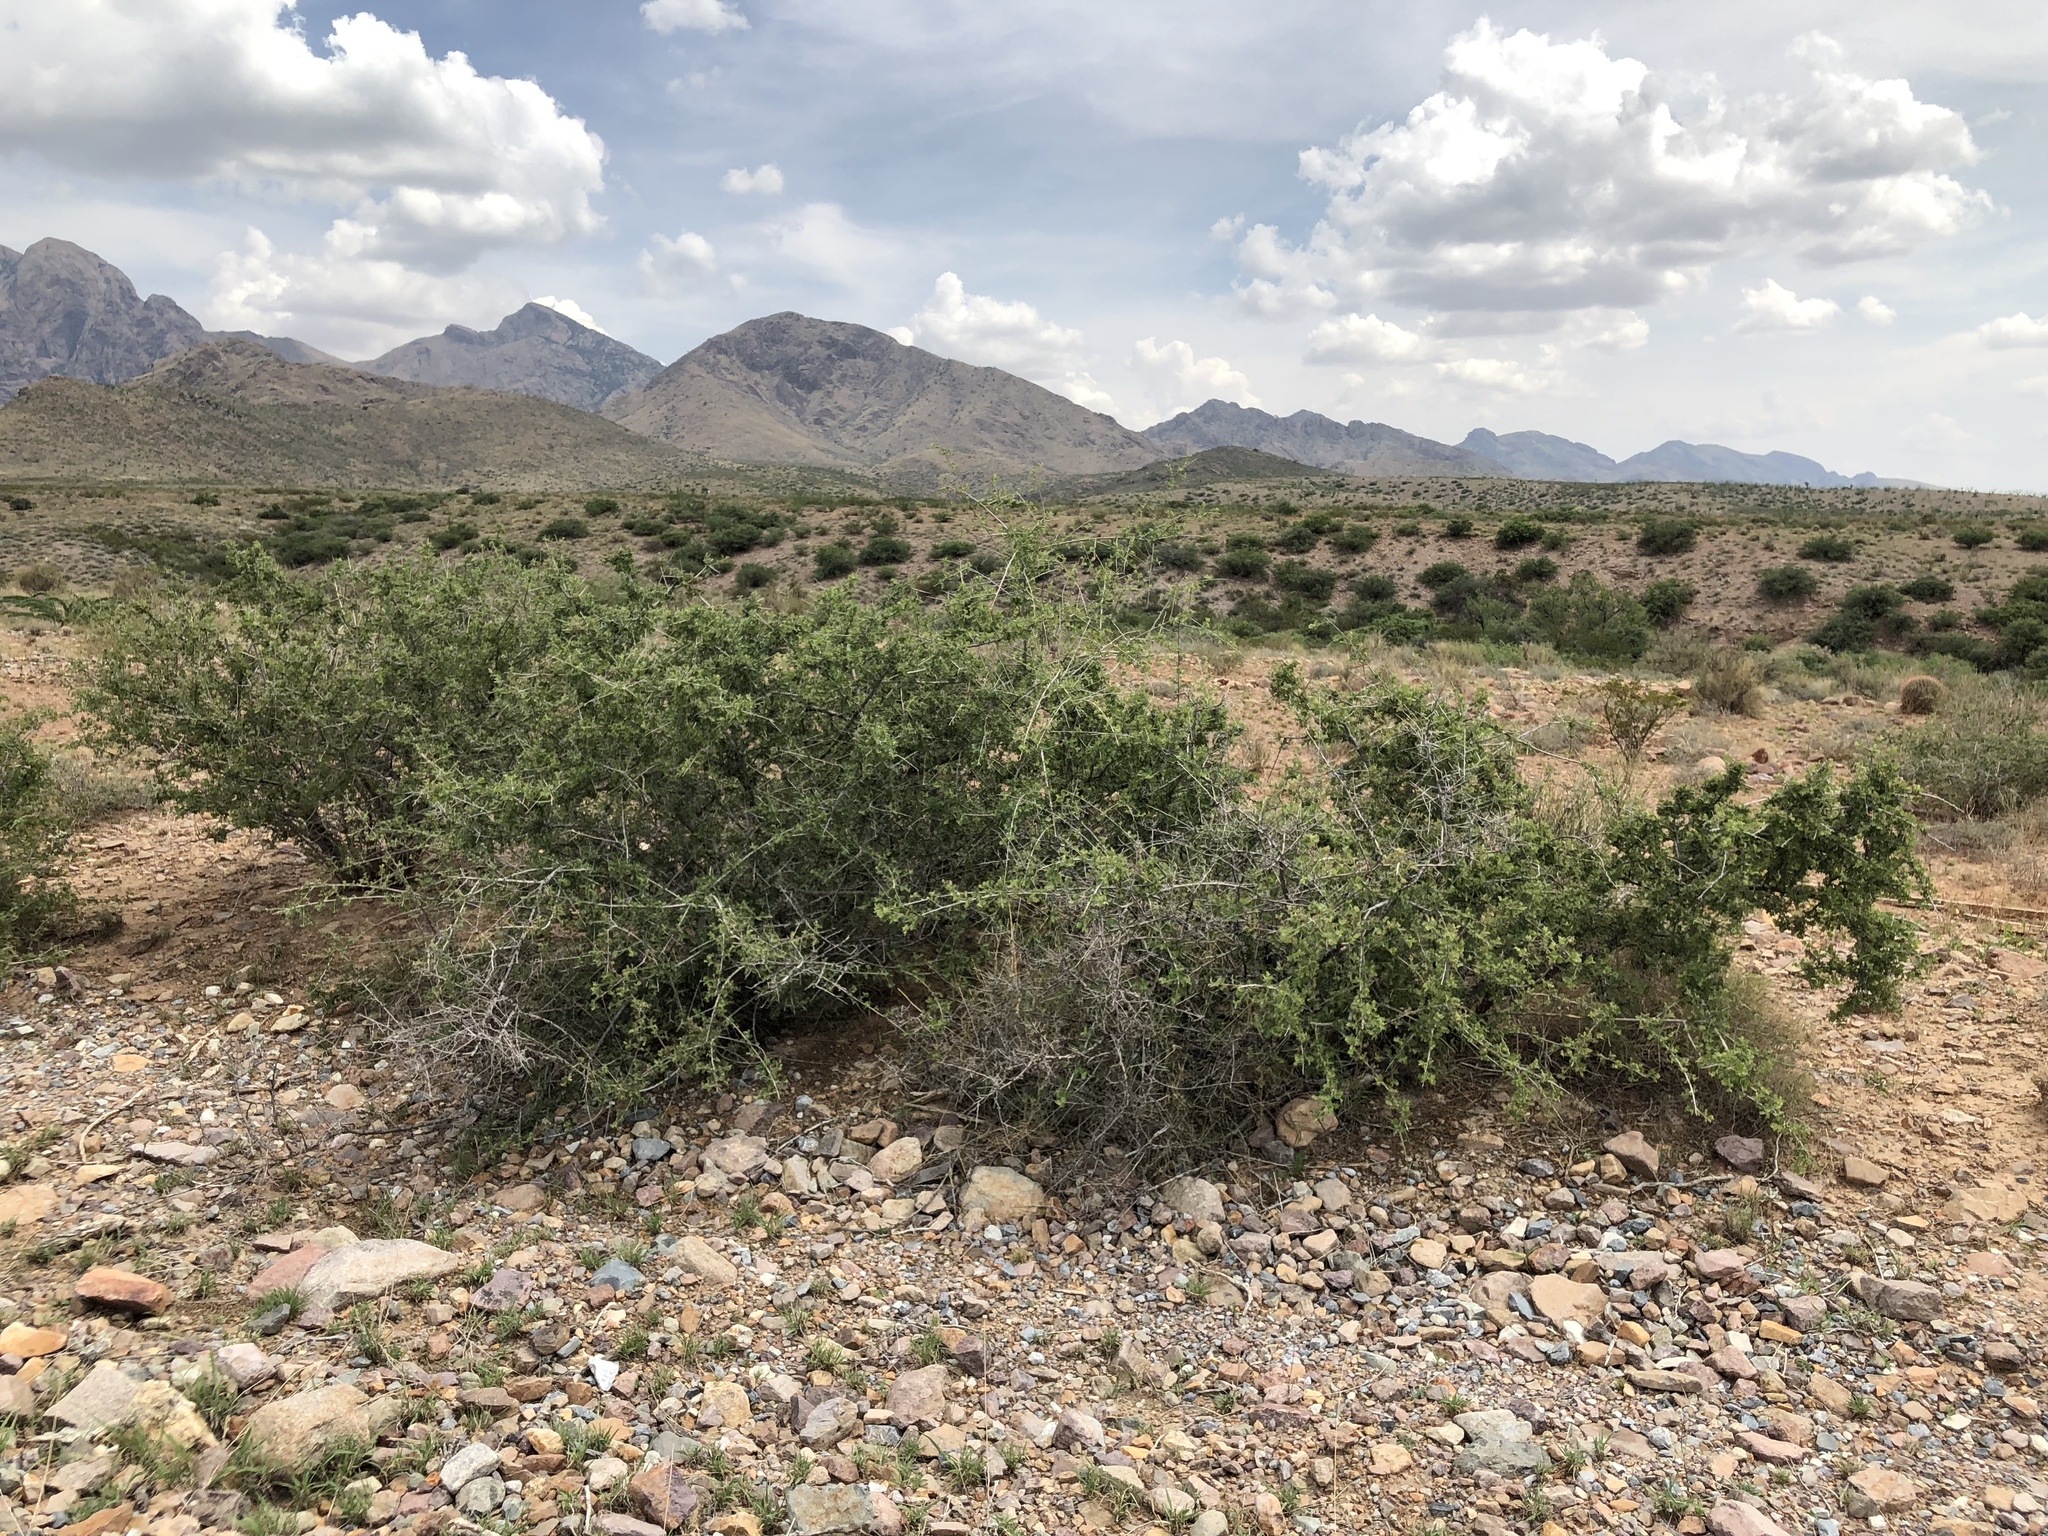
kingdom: Plantae
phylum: Tracheophyta
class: Magnoliopsida
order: Sapindales
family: Anacardiaceae
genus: Rhus
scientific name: Rhus microphylla
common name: Desert sumac
